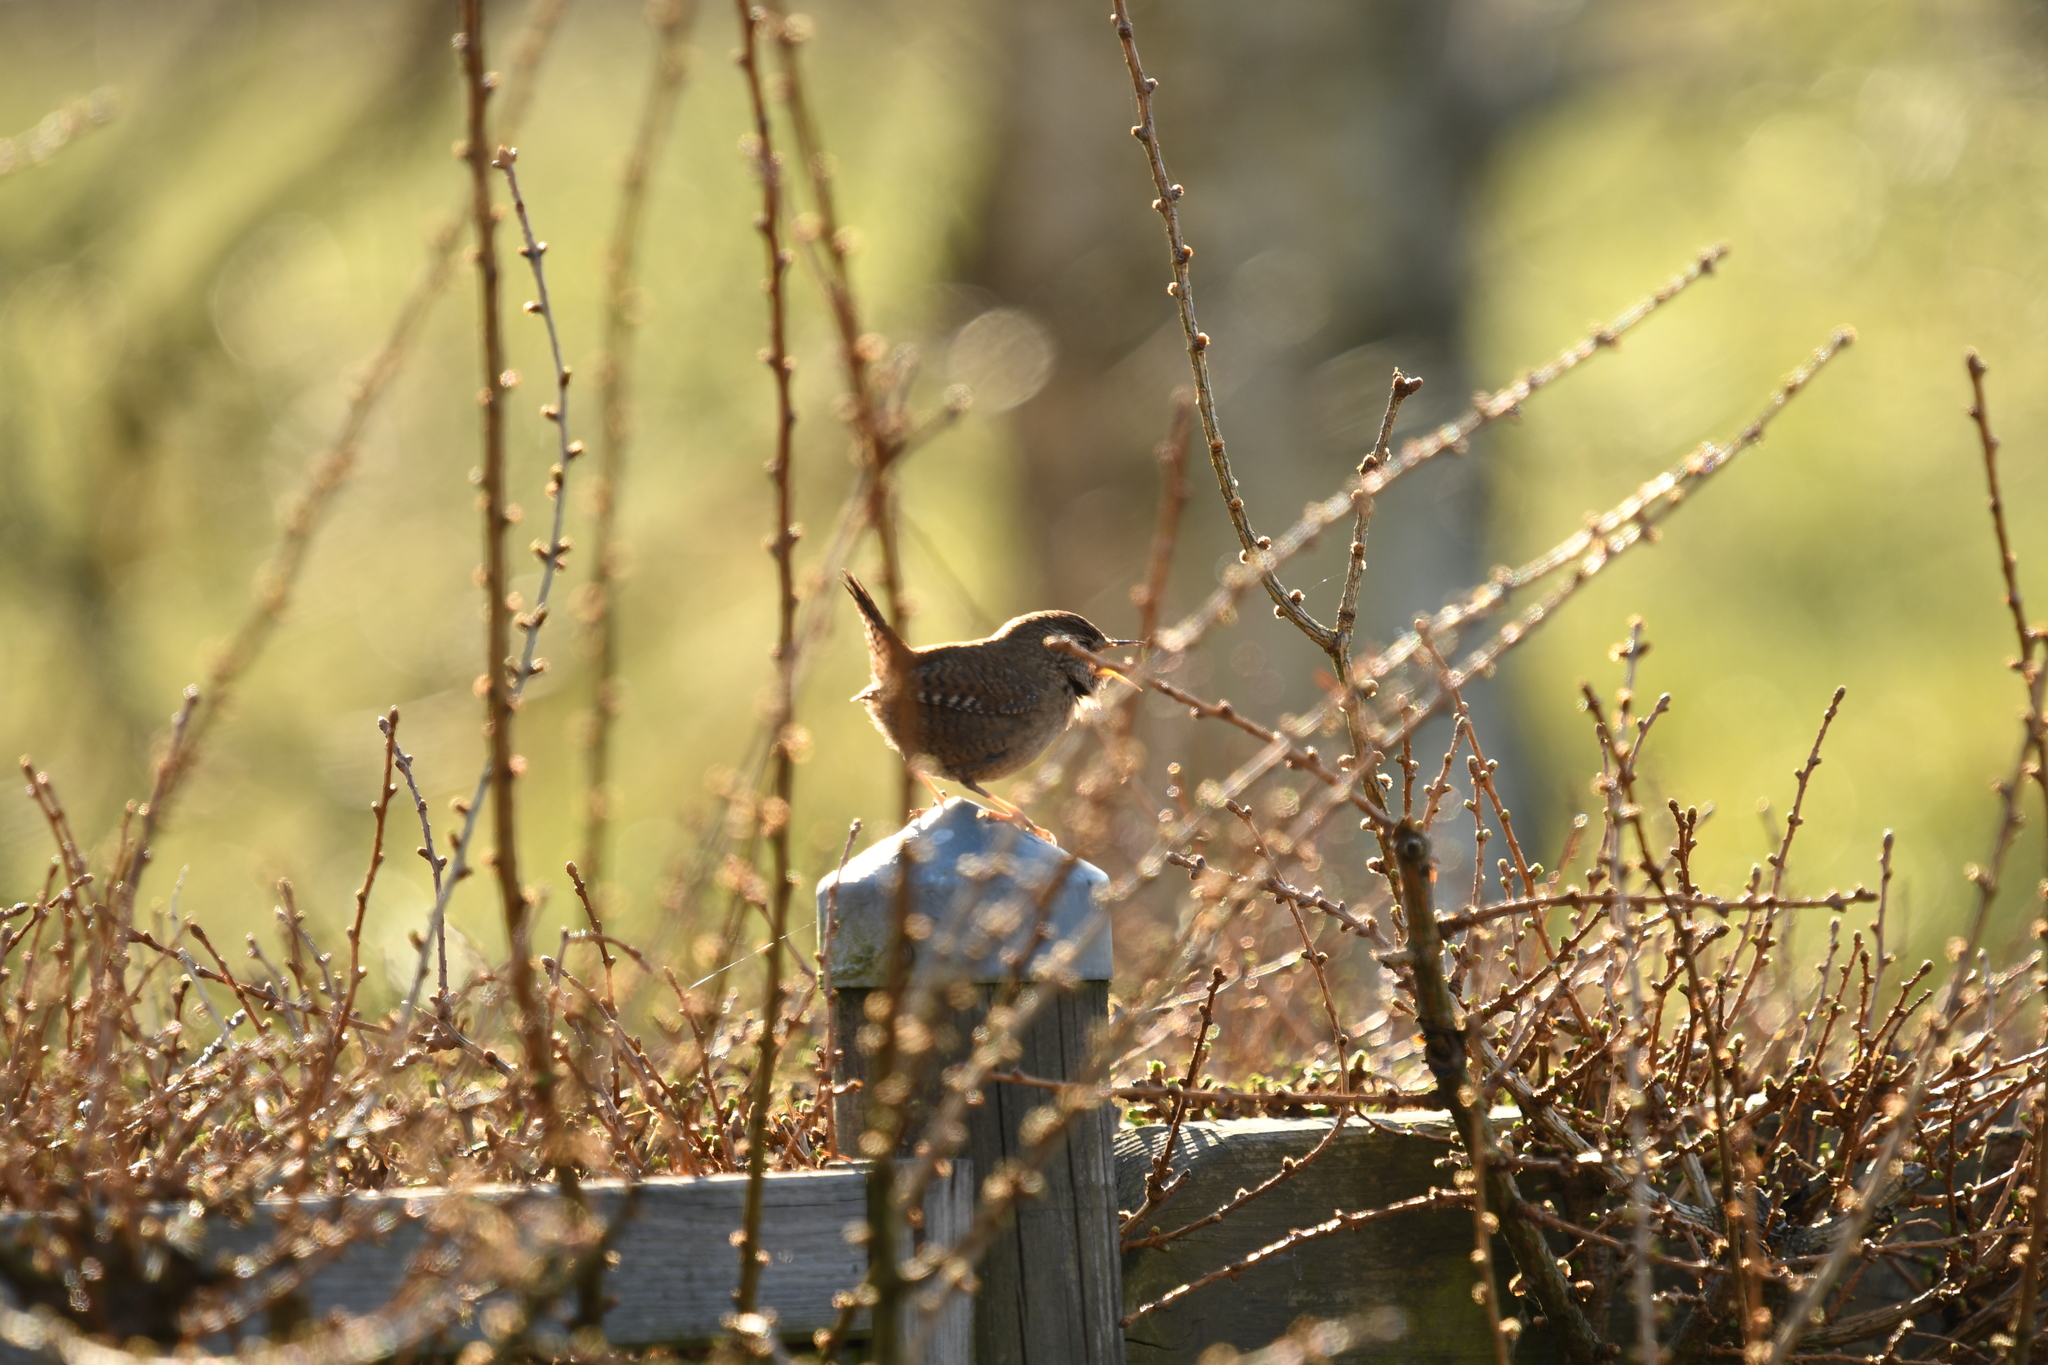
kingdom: Animalia
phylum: Chordata
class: Aves
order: Passeriformes
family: Troglodytidae
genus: Troglodytes
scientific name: Troglodytes troglodytes
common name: Eurasian wren
